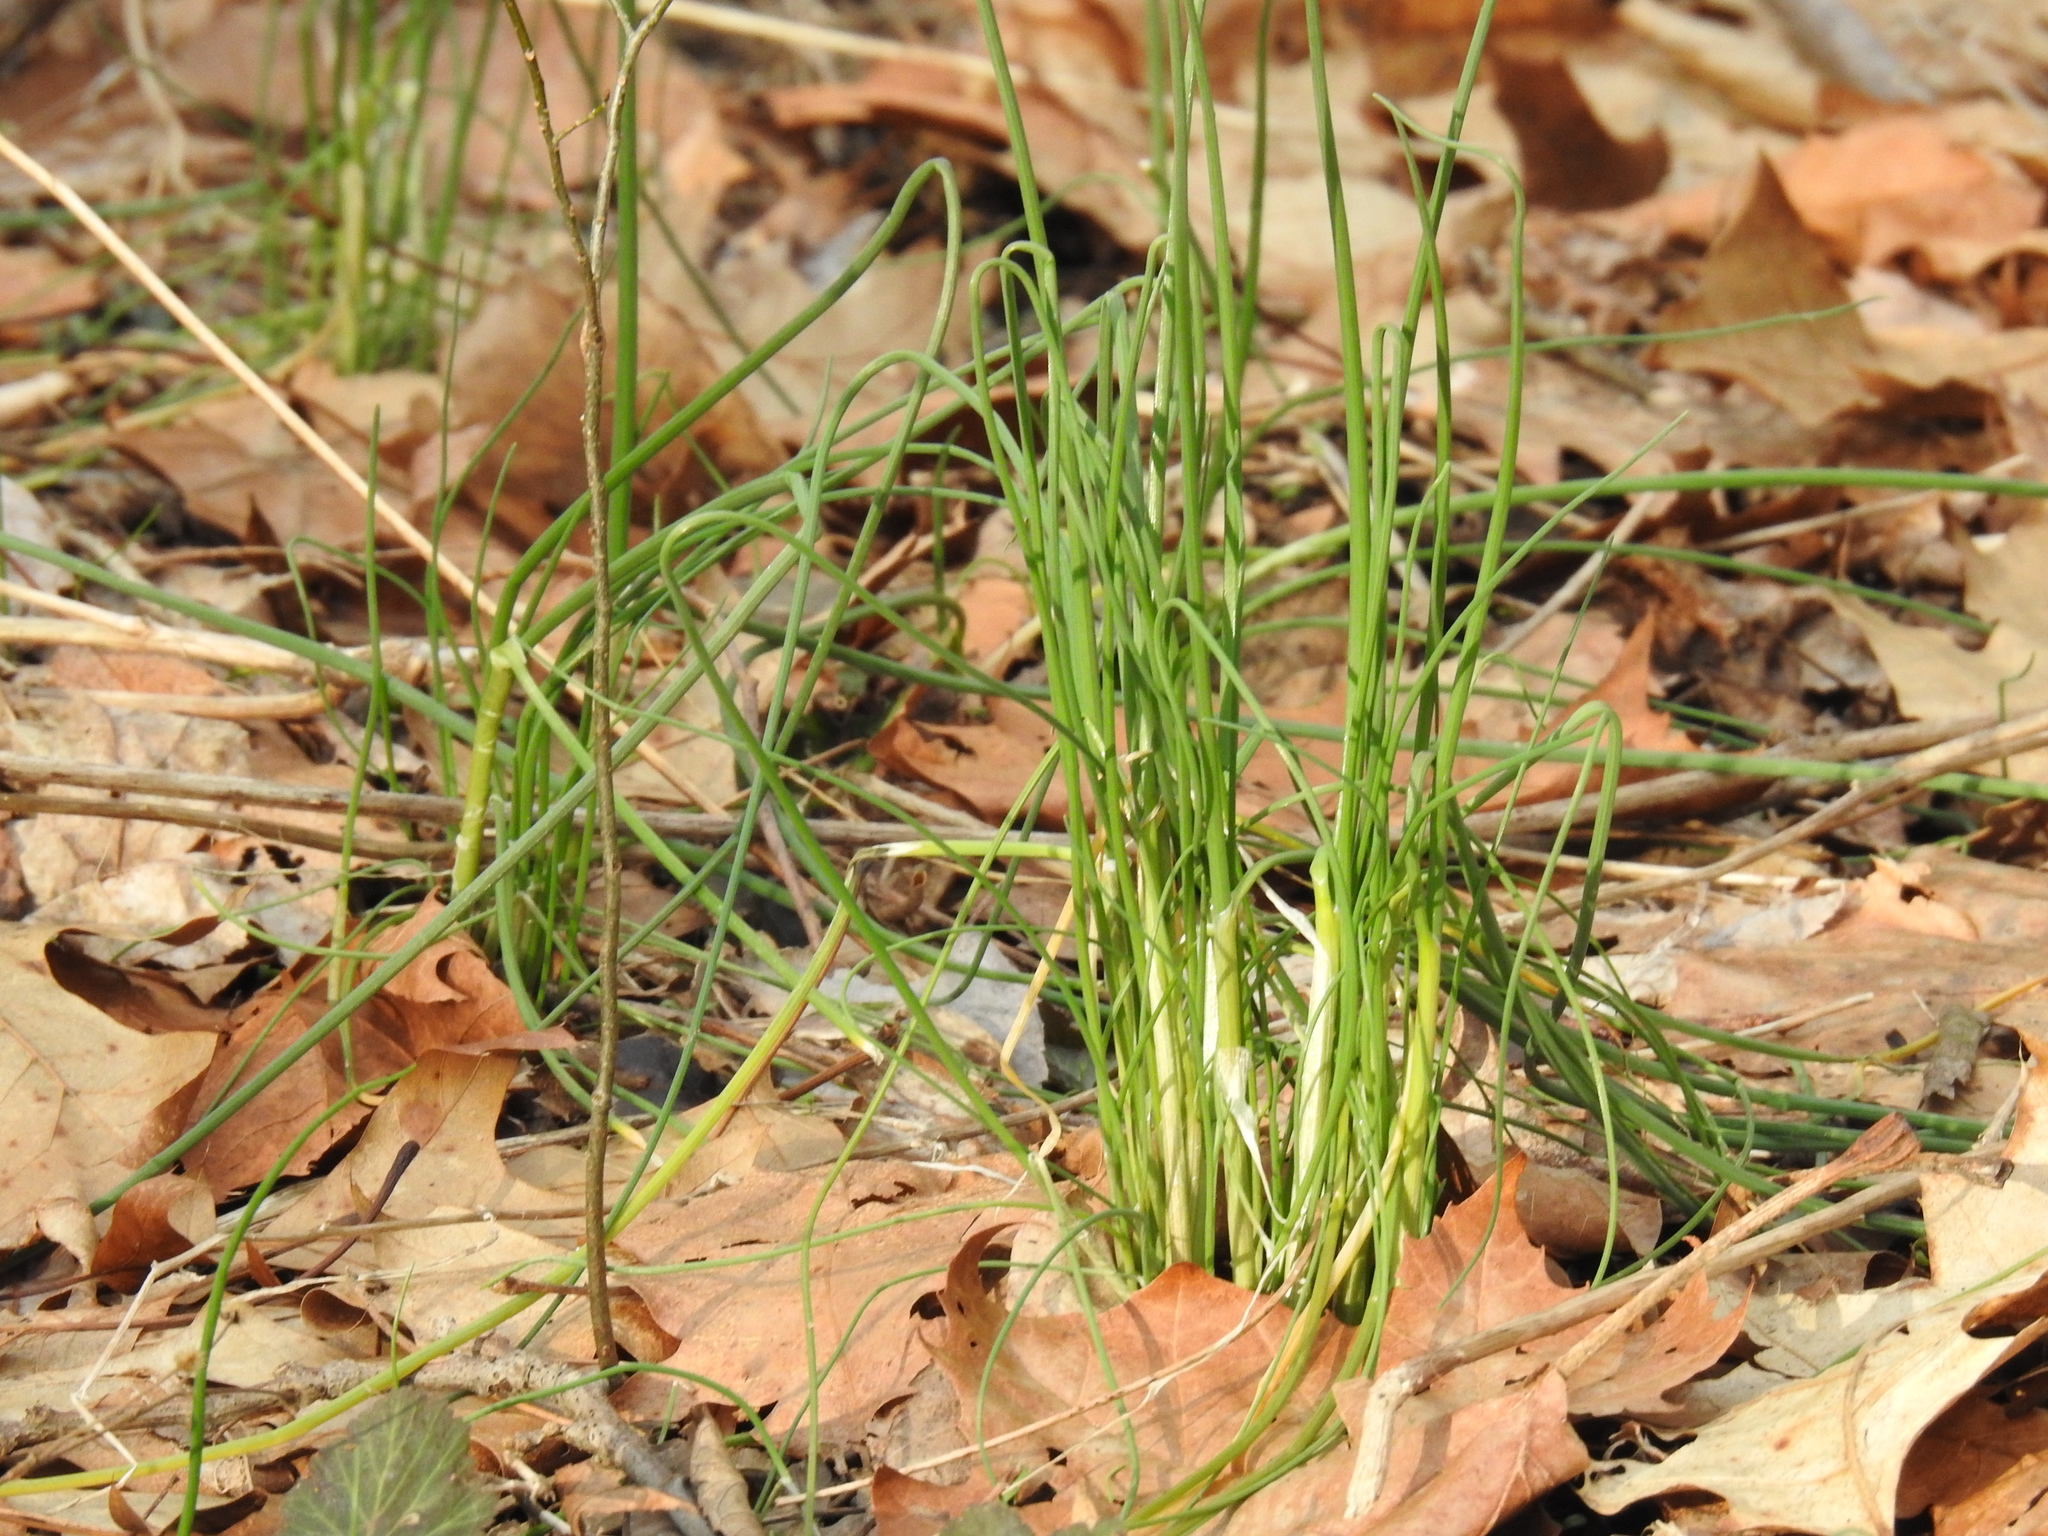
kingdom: Plantae
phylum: Tracheophyta
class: Liliopsida
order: Asparagales
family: Amaryllidaceae
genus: Allium
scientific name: Allium vineale
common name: Crow garlic
